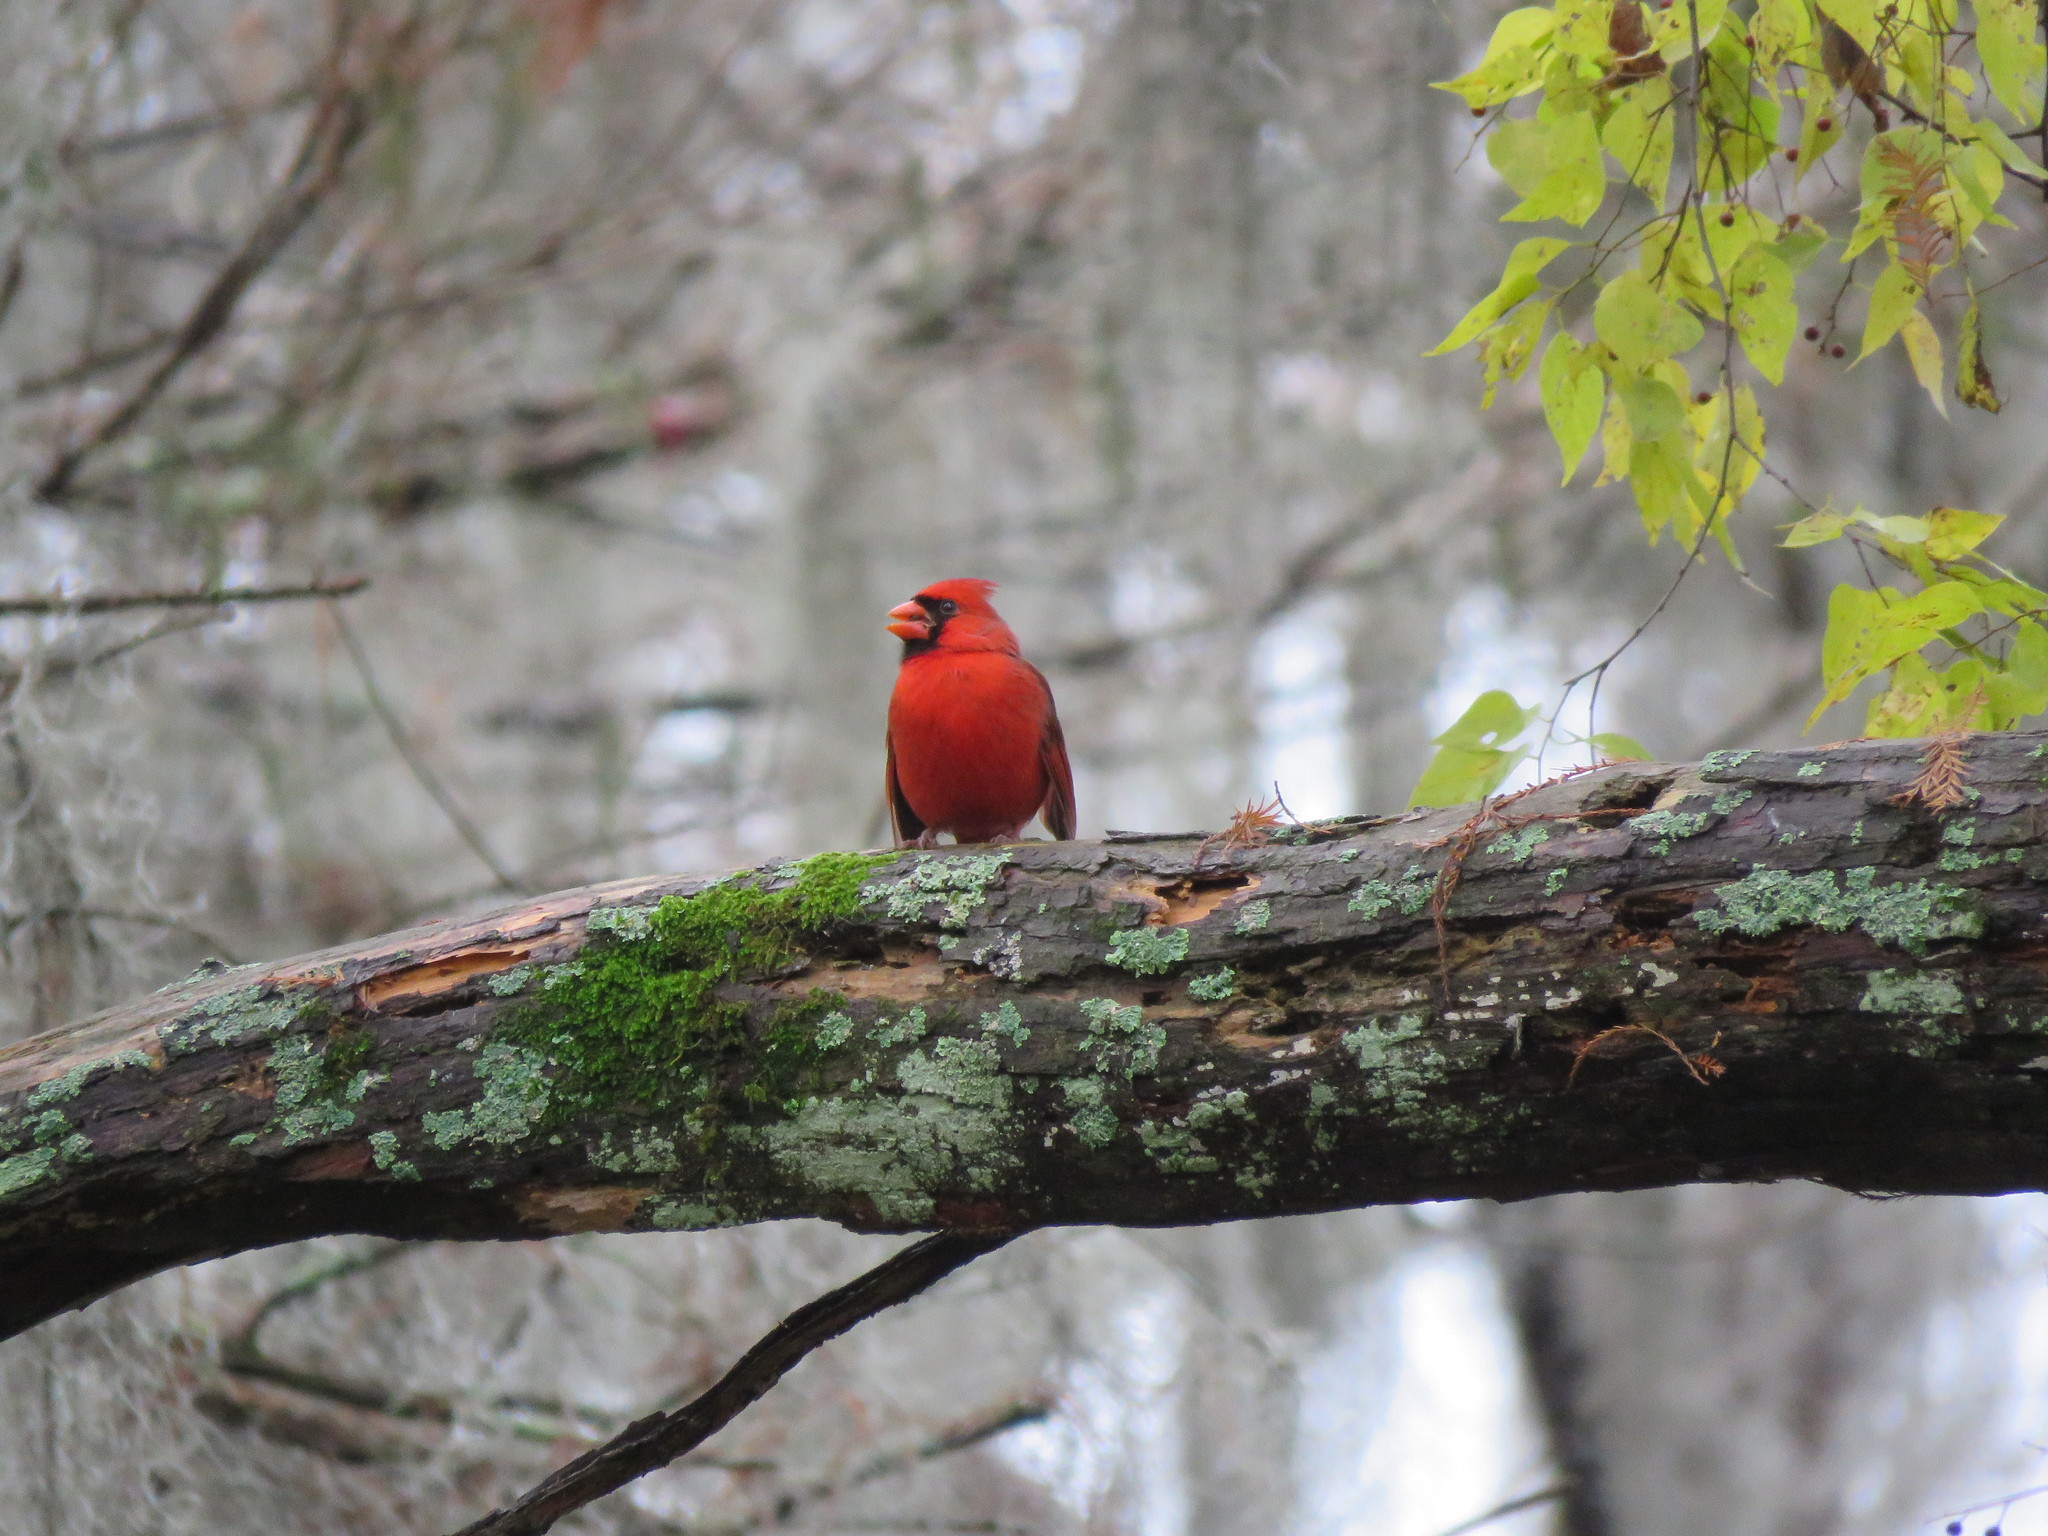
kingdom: Animalia
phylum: Chordata
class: Aves
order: Passeriformes
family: Cardinalidae
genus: Cardinalis
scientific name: Cardinalis cardinalis
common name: Northern cardinal
